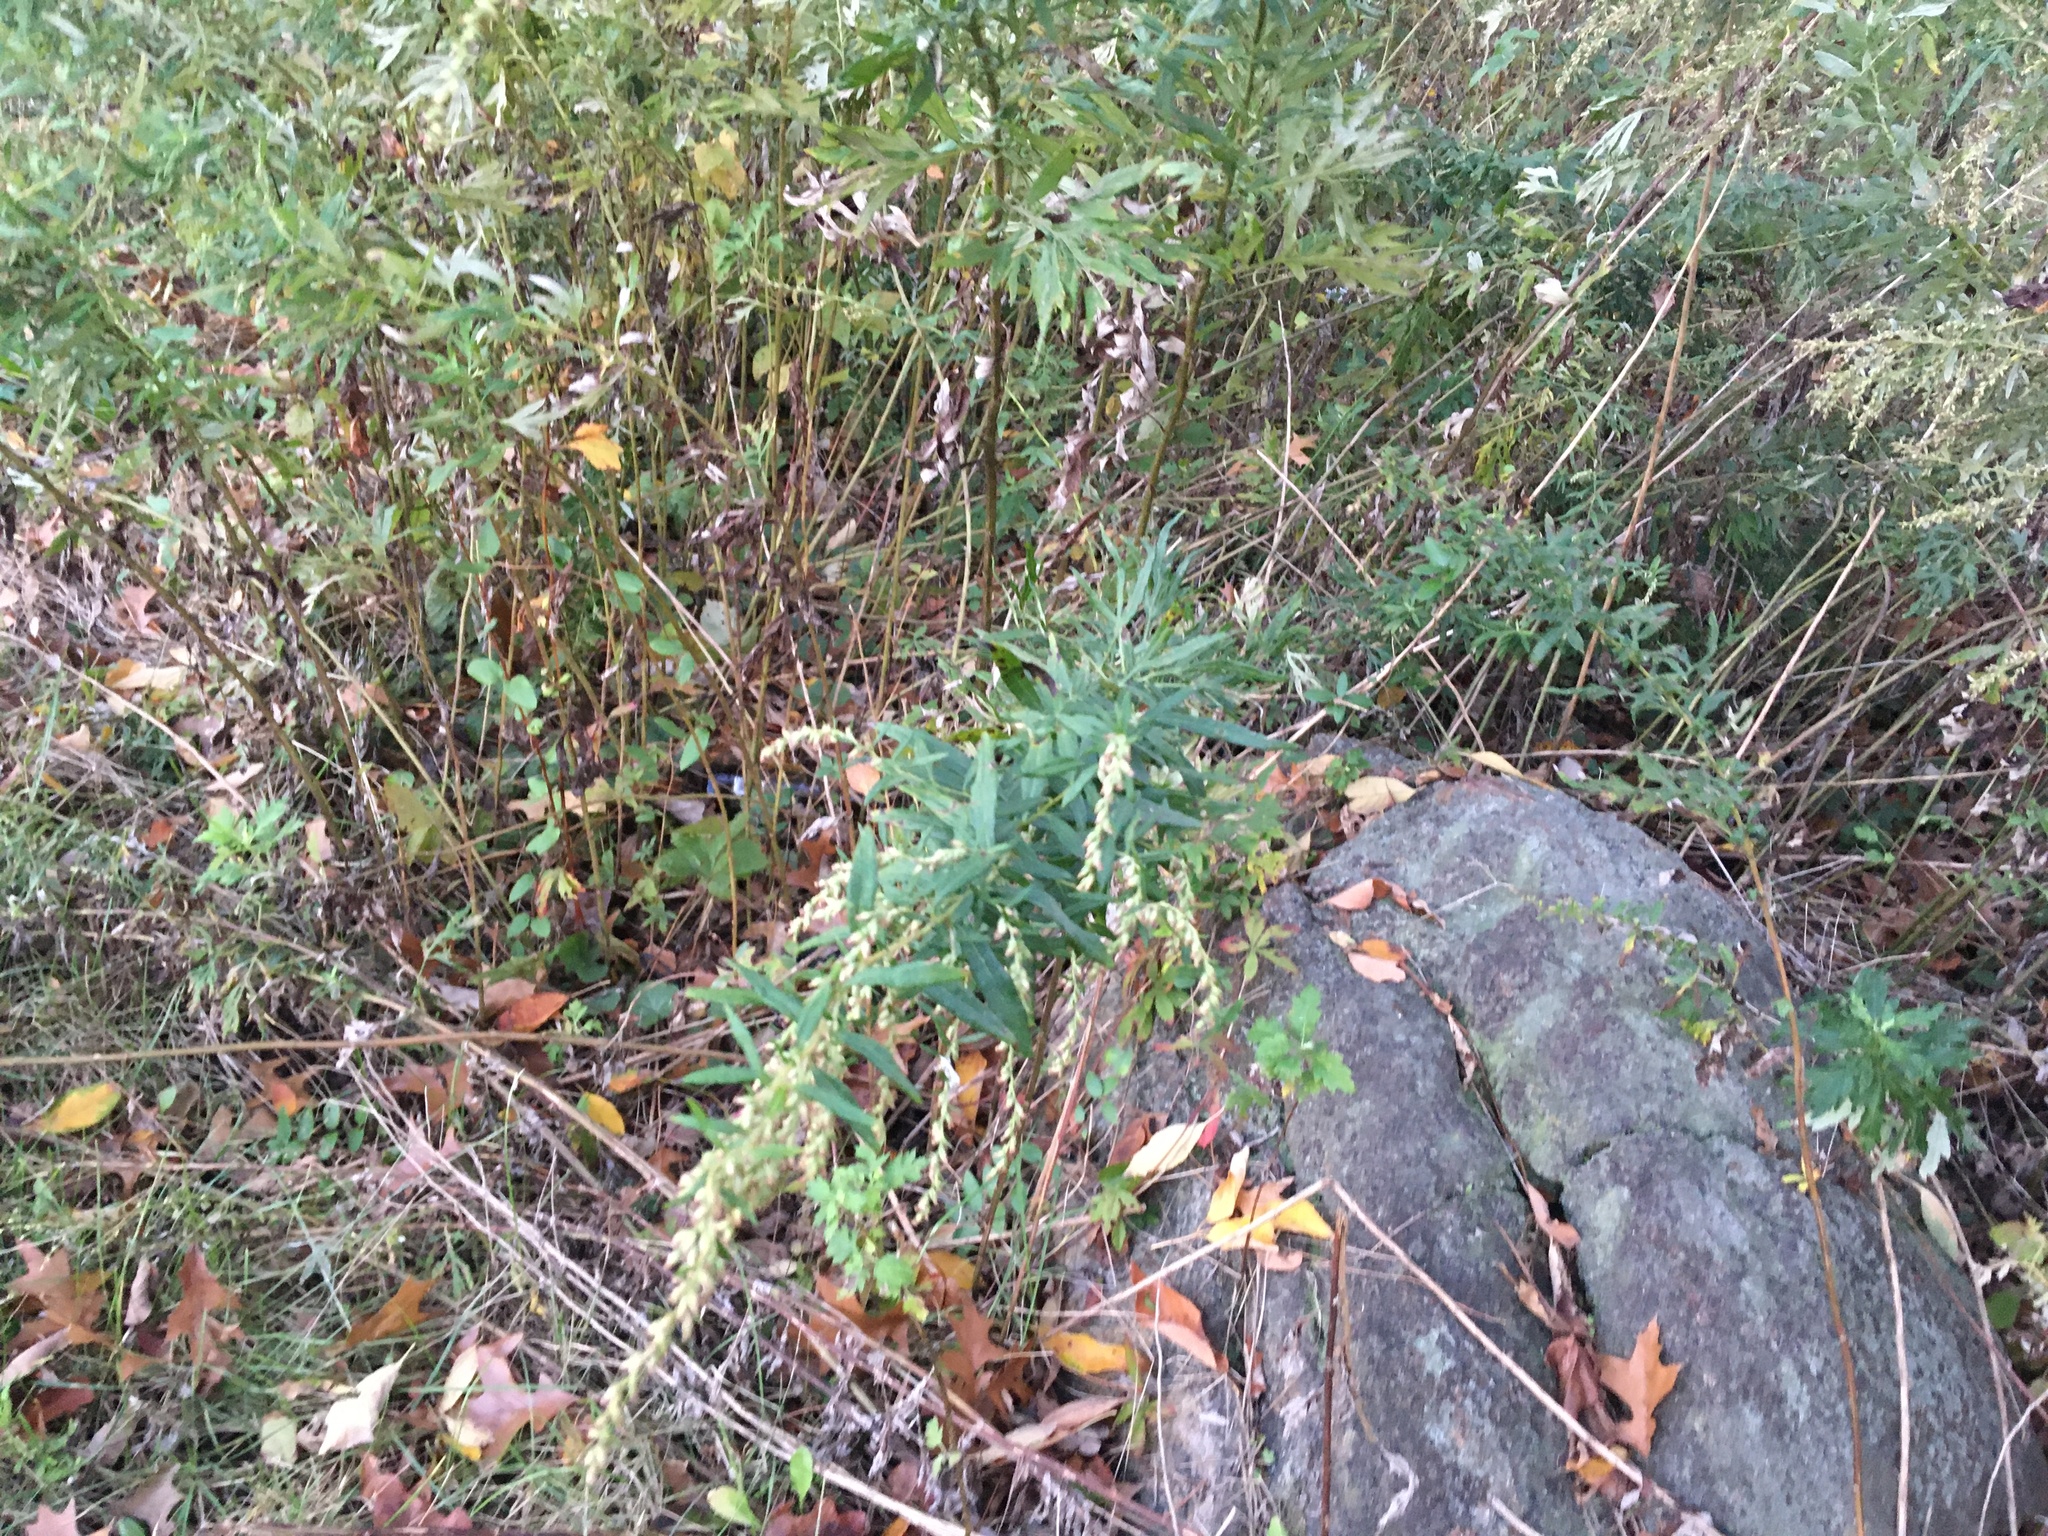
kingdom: Plantae
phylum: Tracheophyta
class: Magnoliopsida
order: Asterales
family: Asteraceae
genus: Artemisia
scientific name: Artemisia vulgaris
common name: Mugwort
